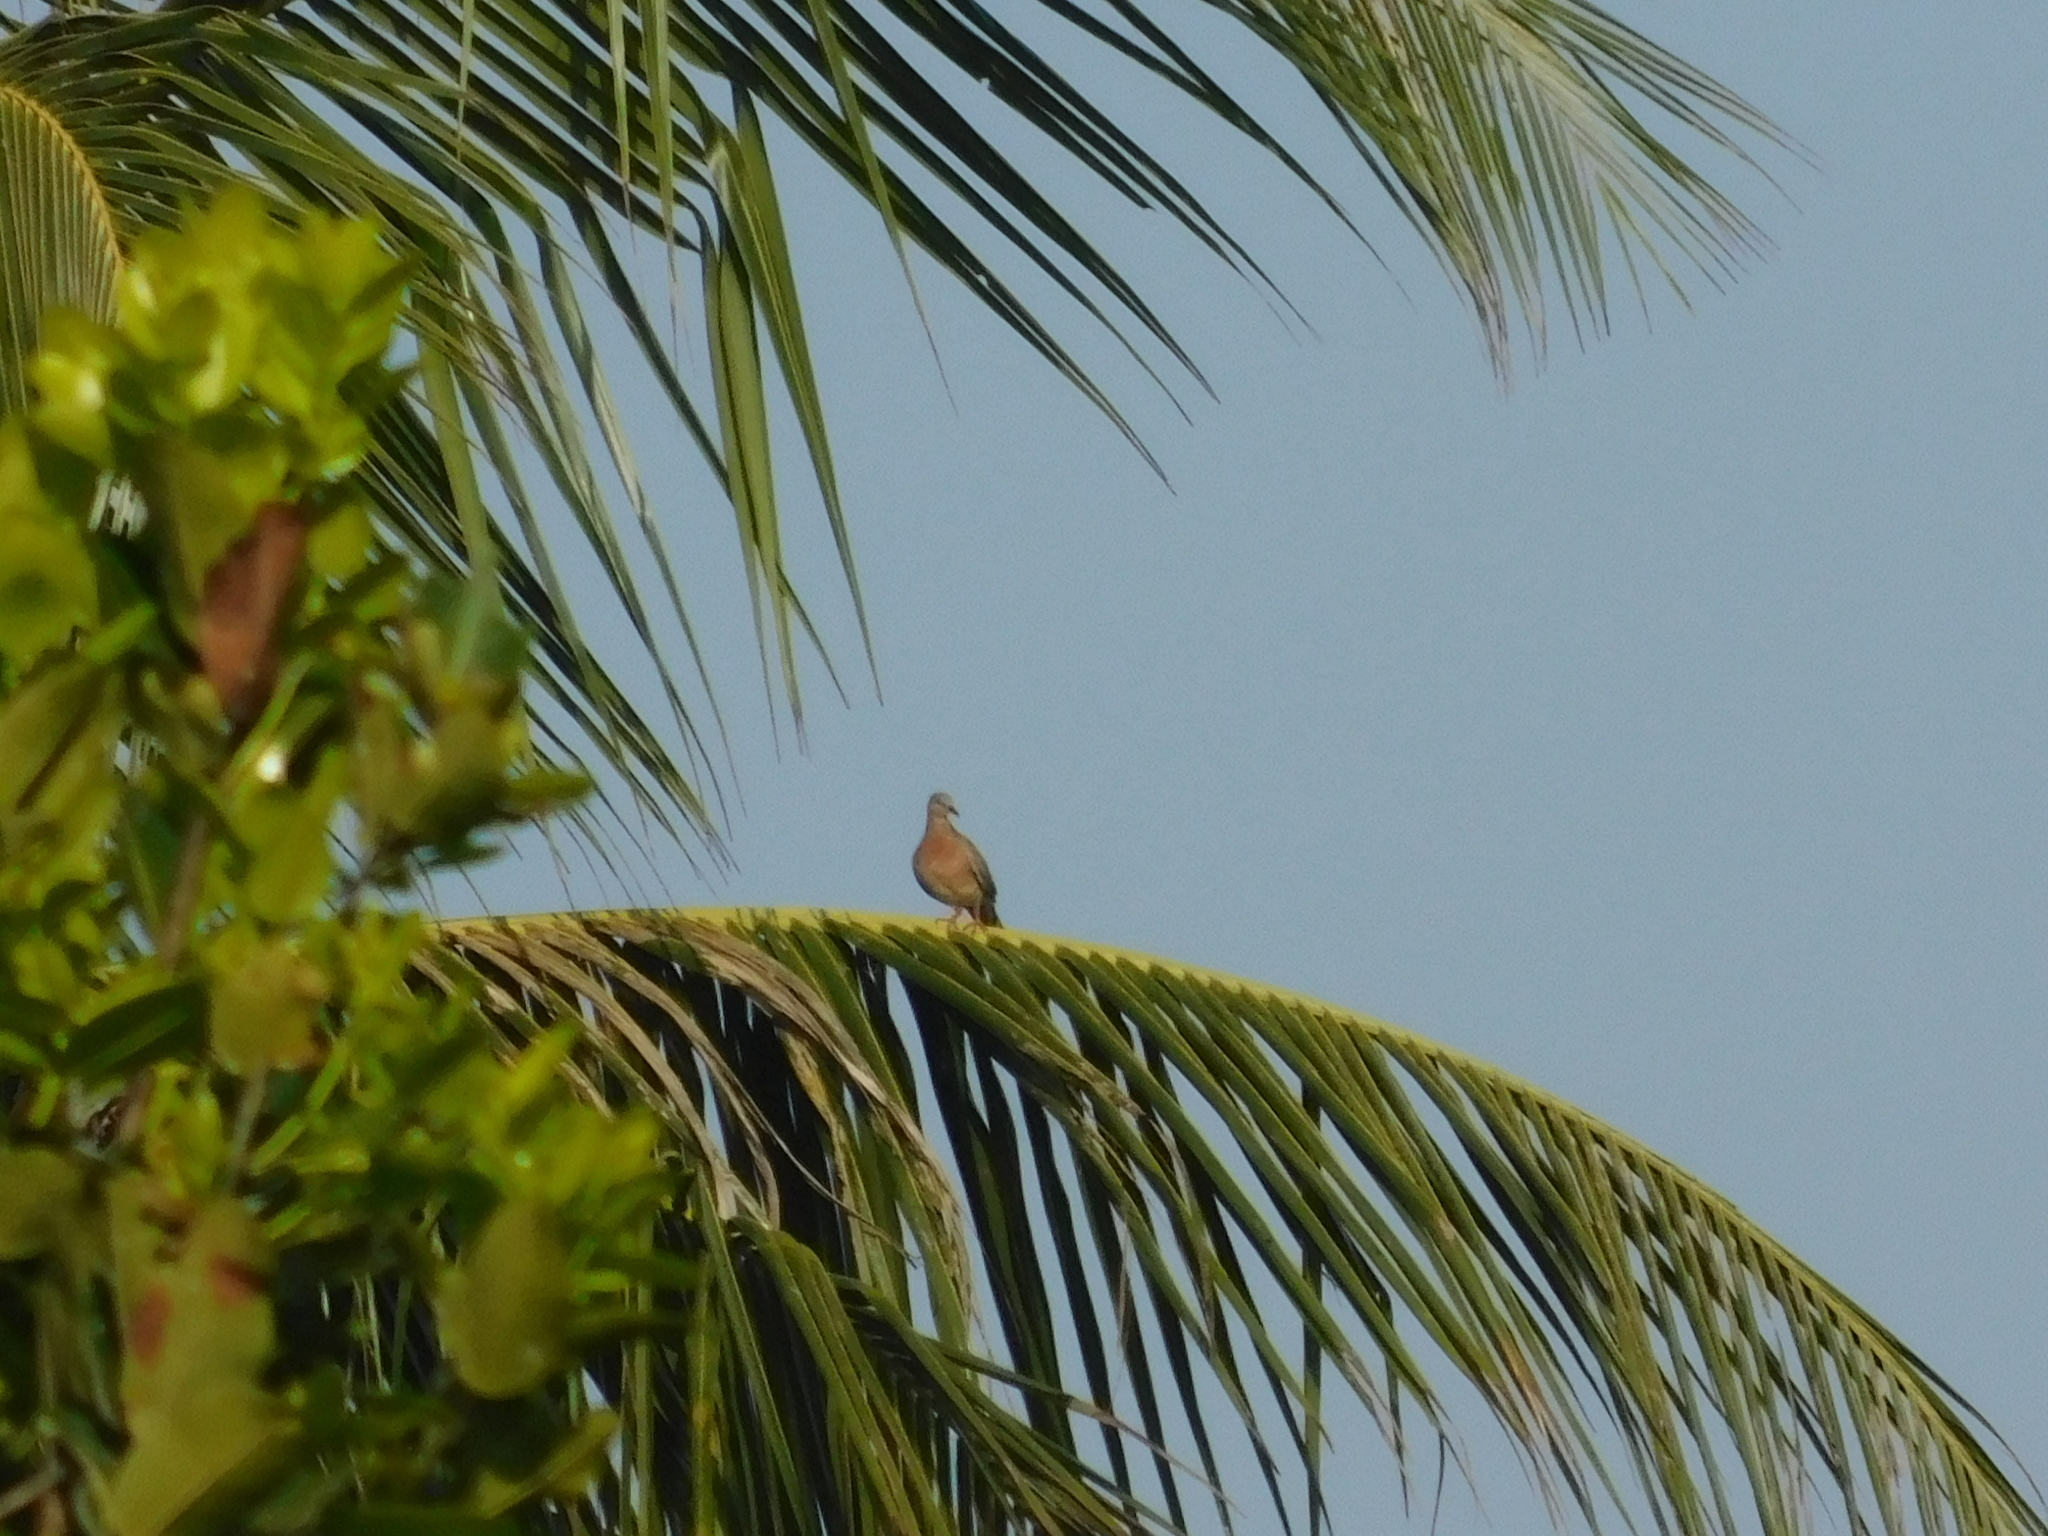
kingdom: Animalia
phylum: Chordata
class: Aves
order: Columbiformes
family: Columbidae
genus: Spilopelia
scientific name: Spilopelia chinensis
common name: Spotted dove
